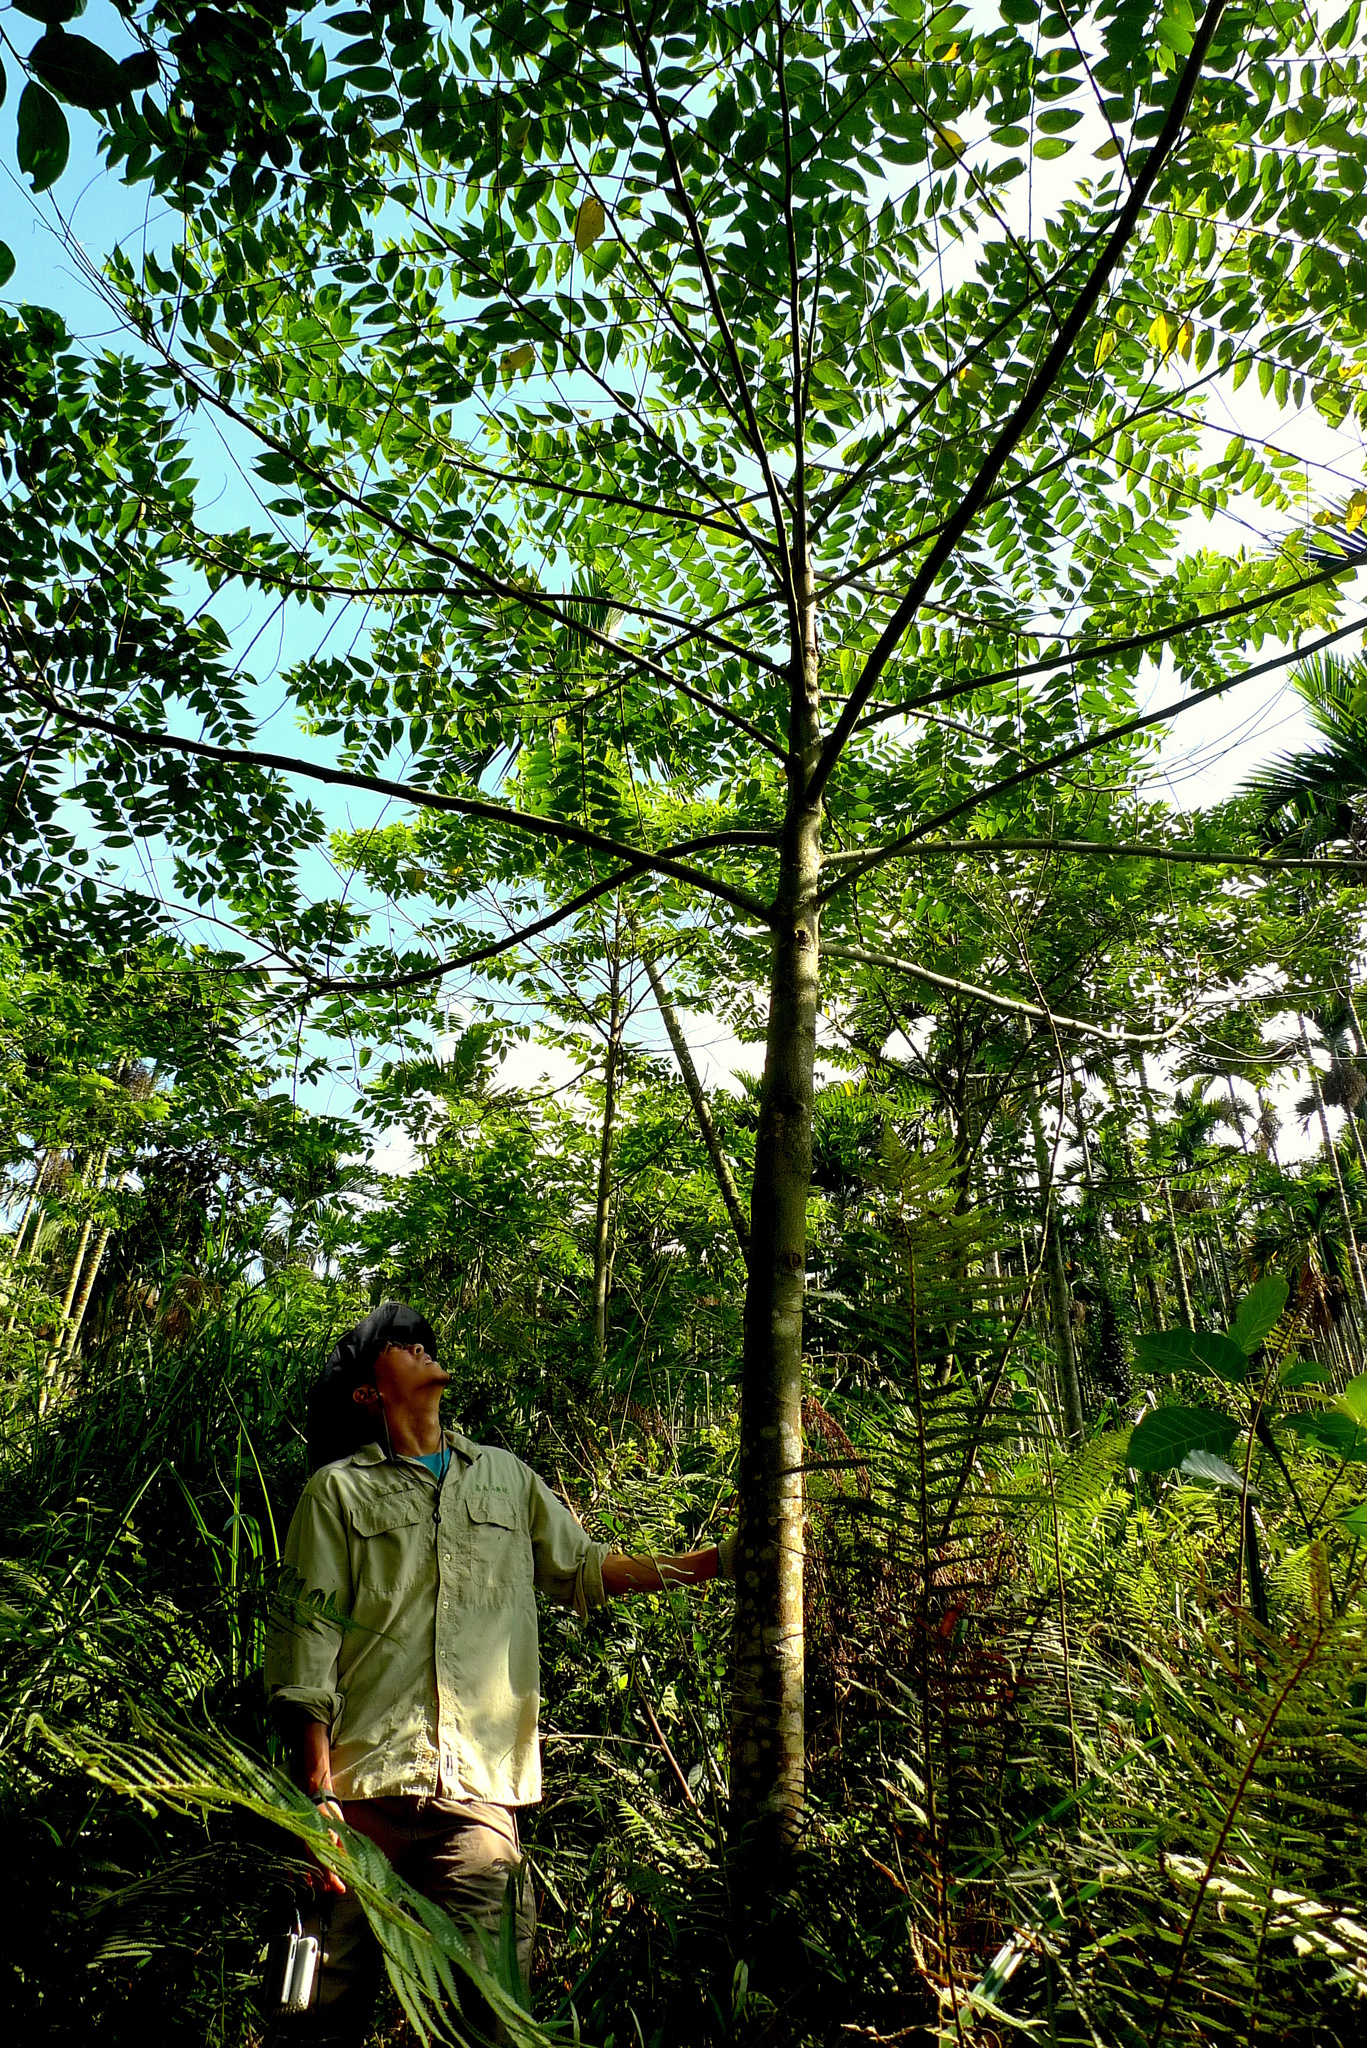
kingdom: Plantae
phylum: Tracheophyta
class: Magnoliopsida
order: Rosales
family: Cannabaceae
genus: Trema
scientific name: Trema orientale
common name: Indian charcoal tree
